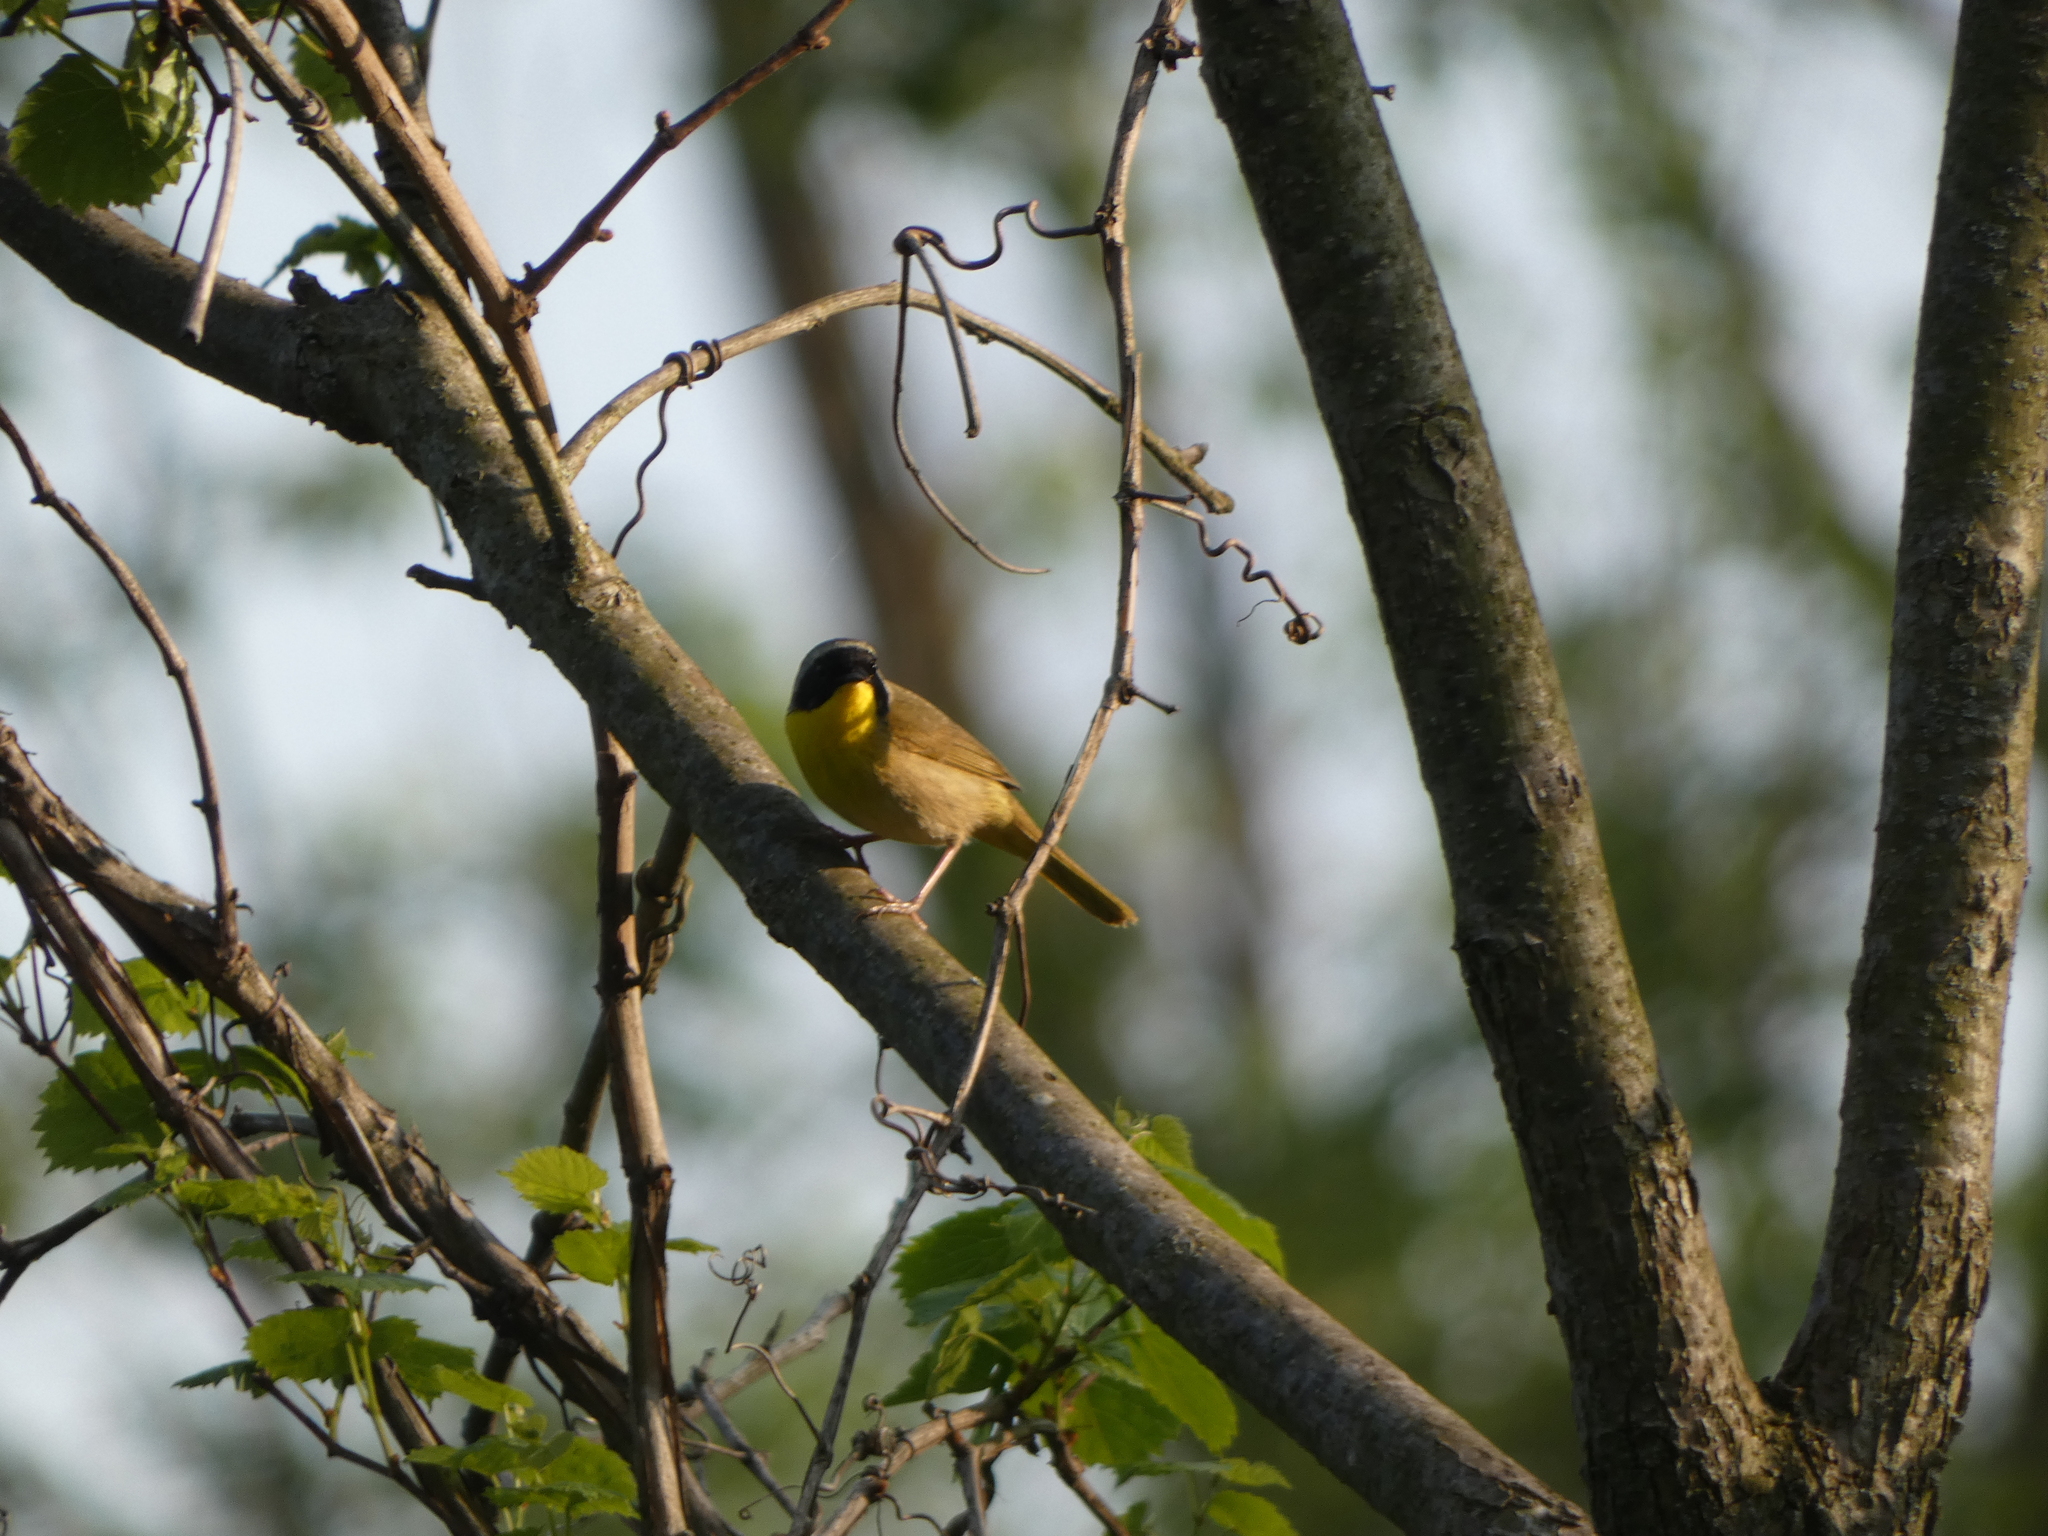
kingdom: Animalia
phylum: Chordata
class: Aves
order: Passeriformes
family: Parulidae
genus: Geothlypis
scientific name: Geothlypis trichas
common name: Common yellowthroat
